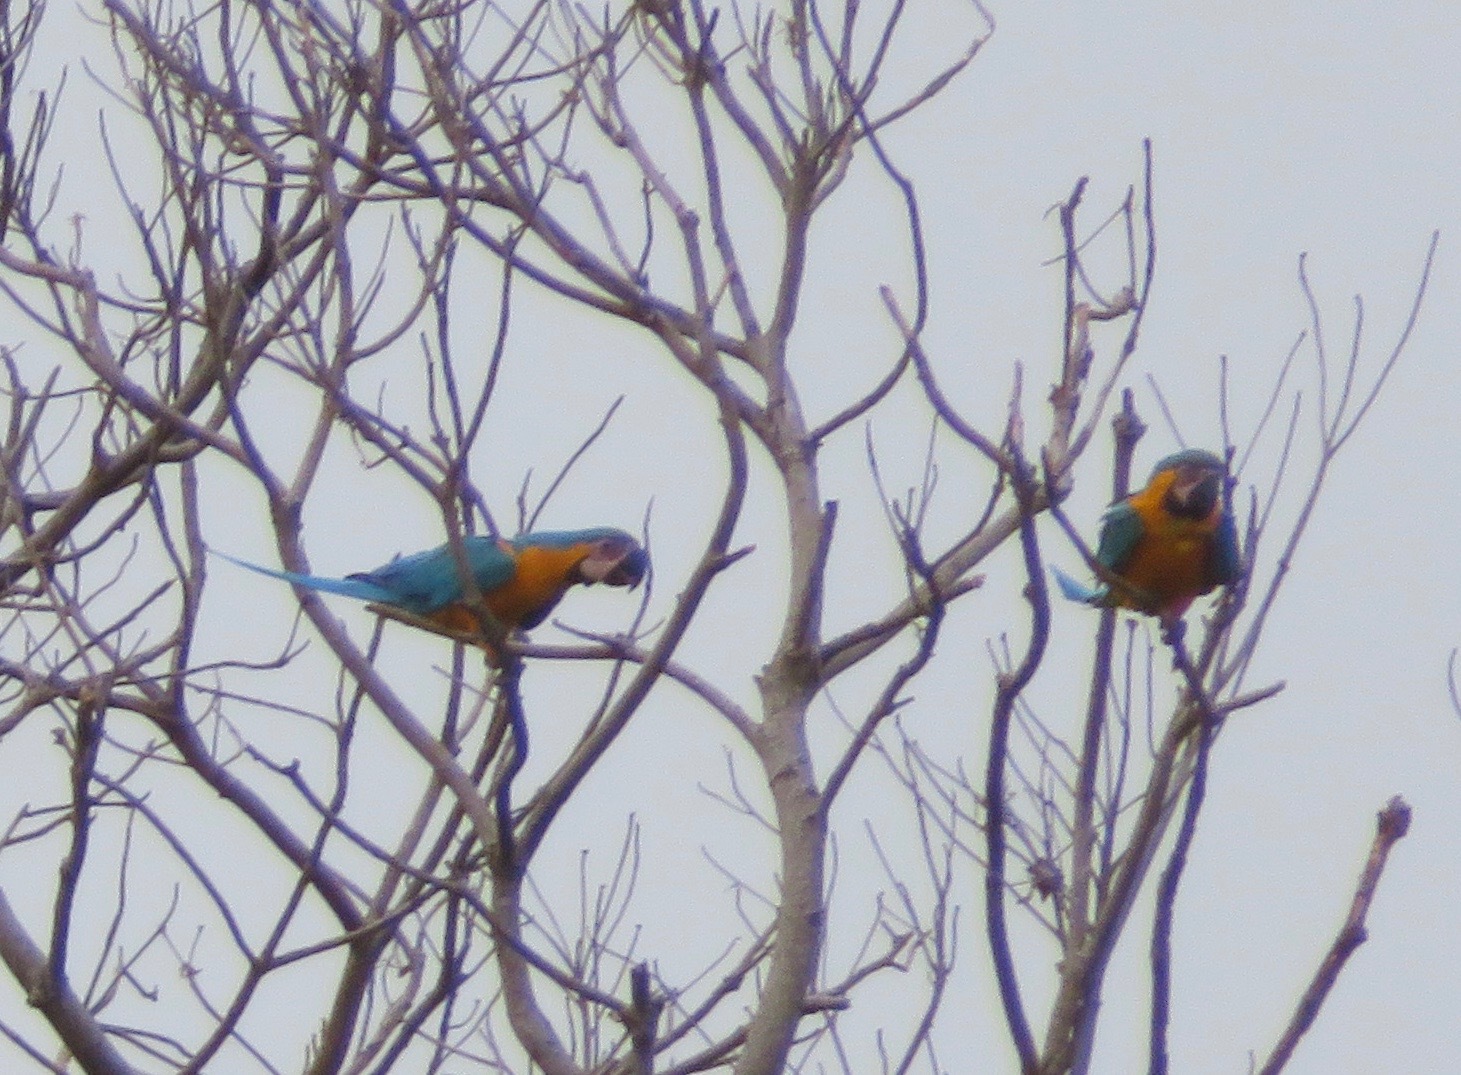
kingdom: Animalia
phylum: Chordata
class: Aves
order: Psittaciformes
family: Psittacidae
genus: Ara
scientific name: Ara ararauna
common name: Blue-and-yellow macaw
